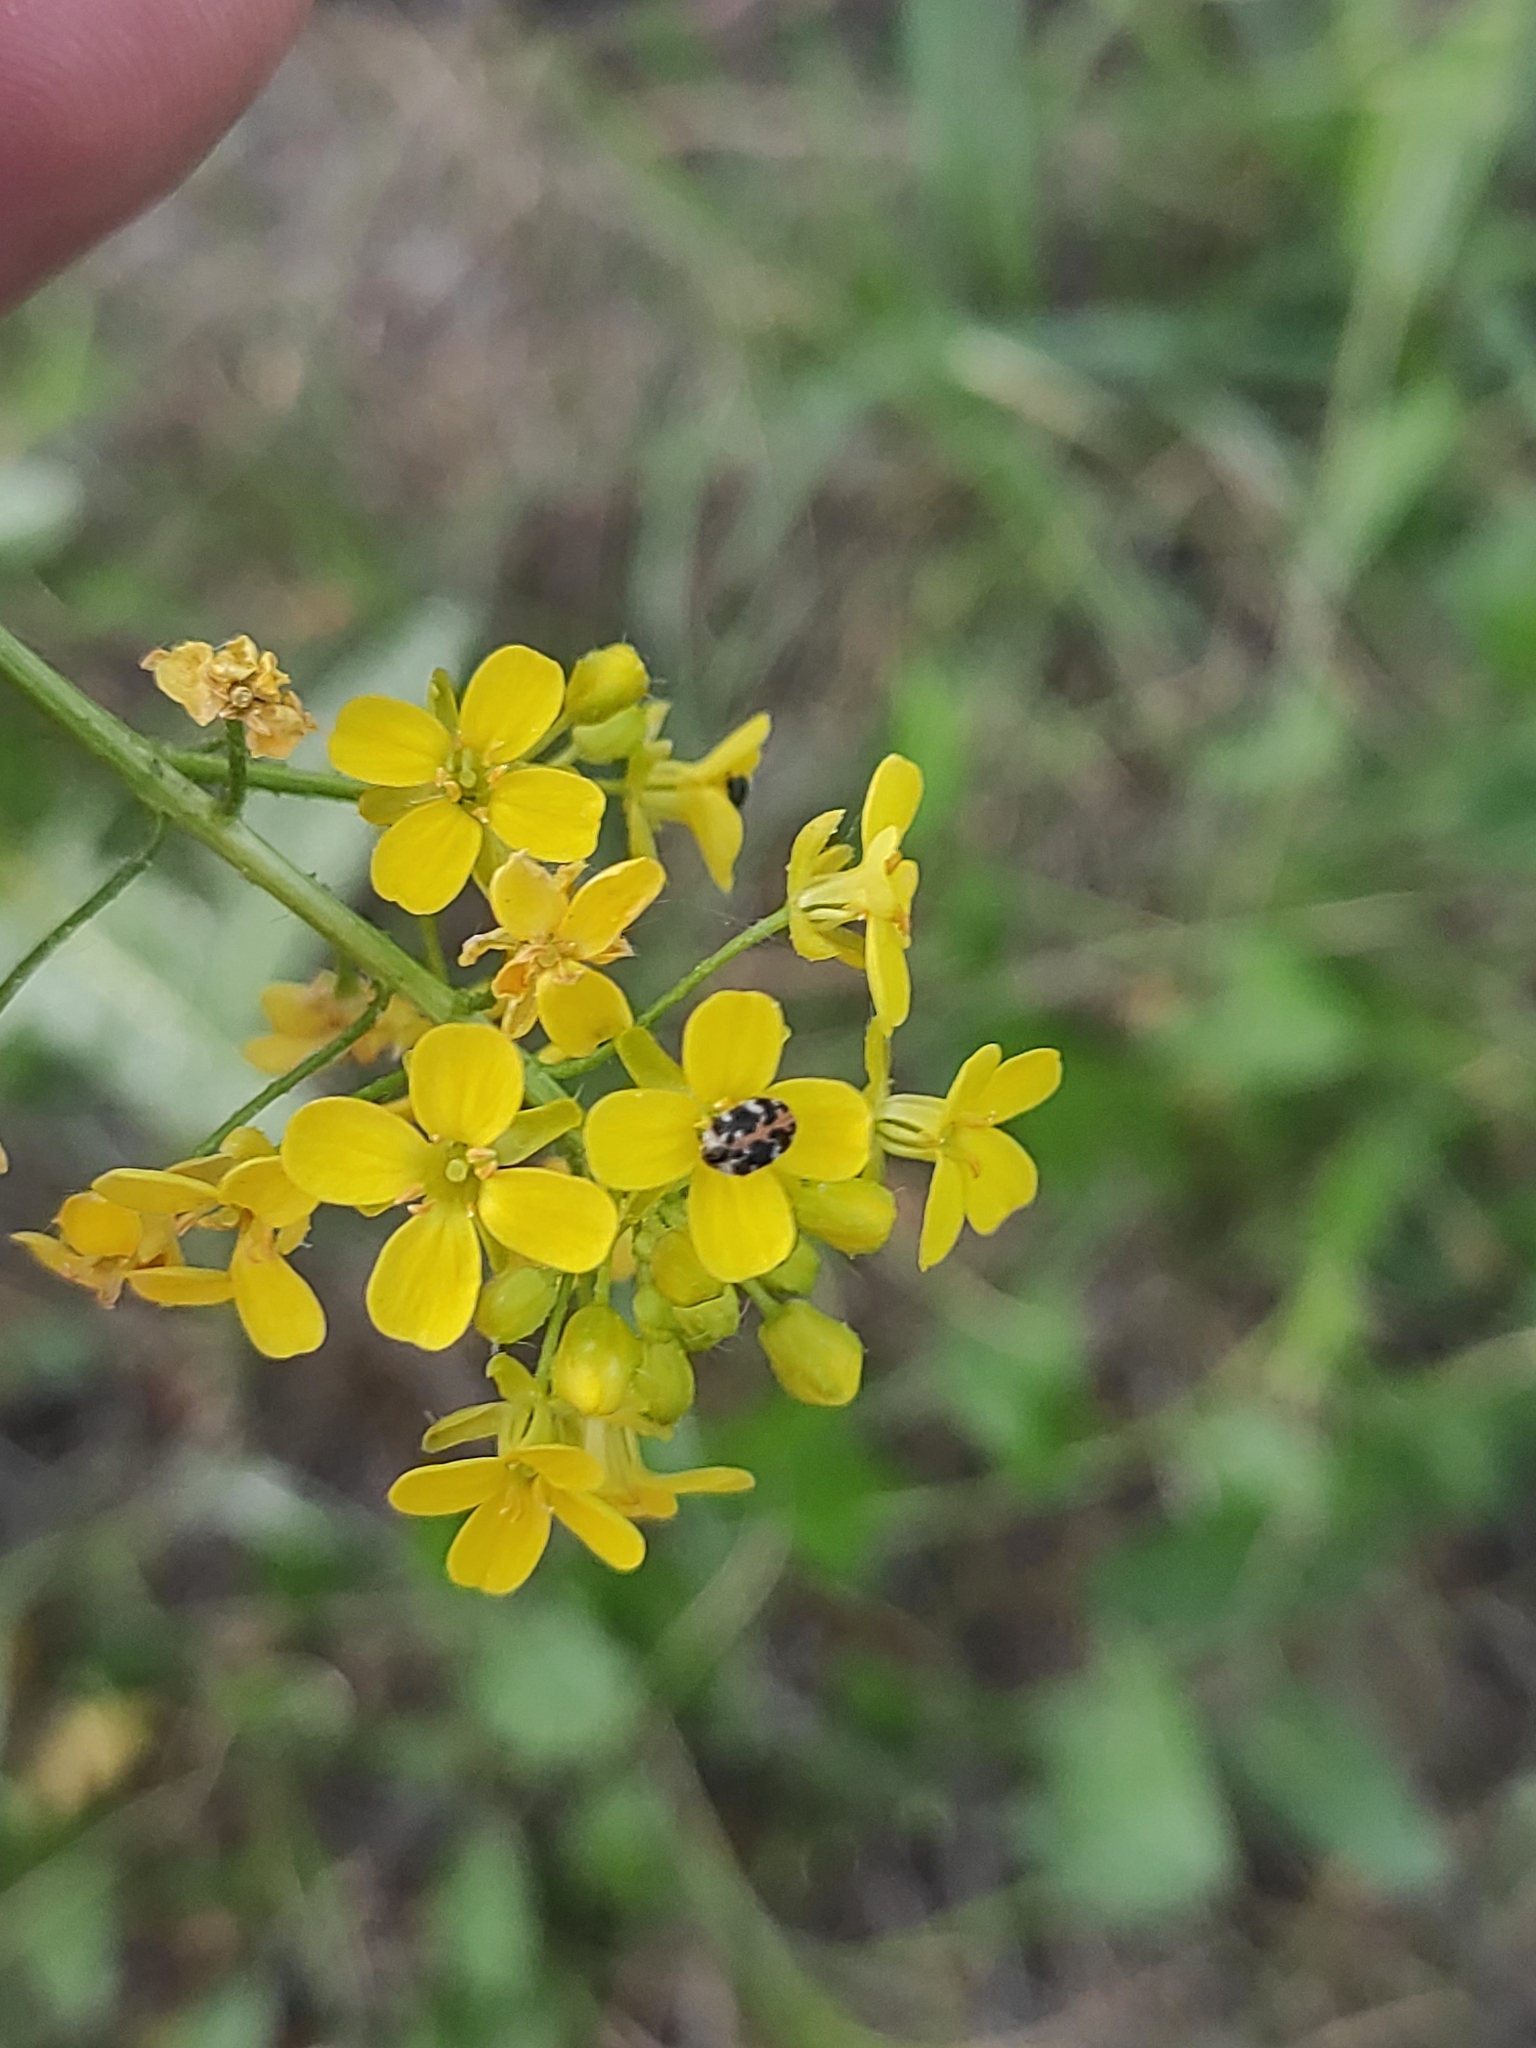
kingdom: Animalia
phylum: Arthropoda
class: Insecta
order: Coleoptera
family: Dermestidae
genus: Anthrenus
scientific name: Anthrenus scrophulariae
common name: Buffalo carpet beetle
